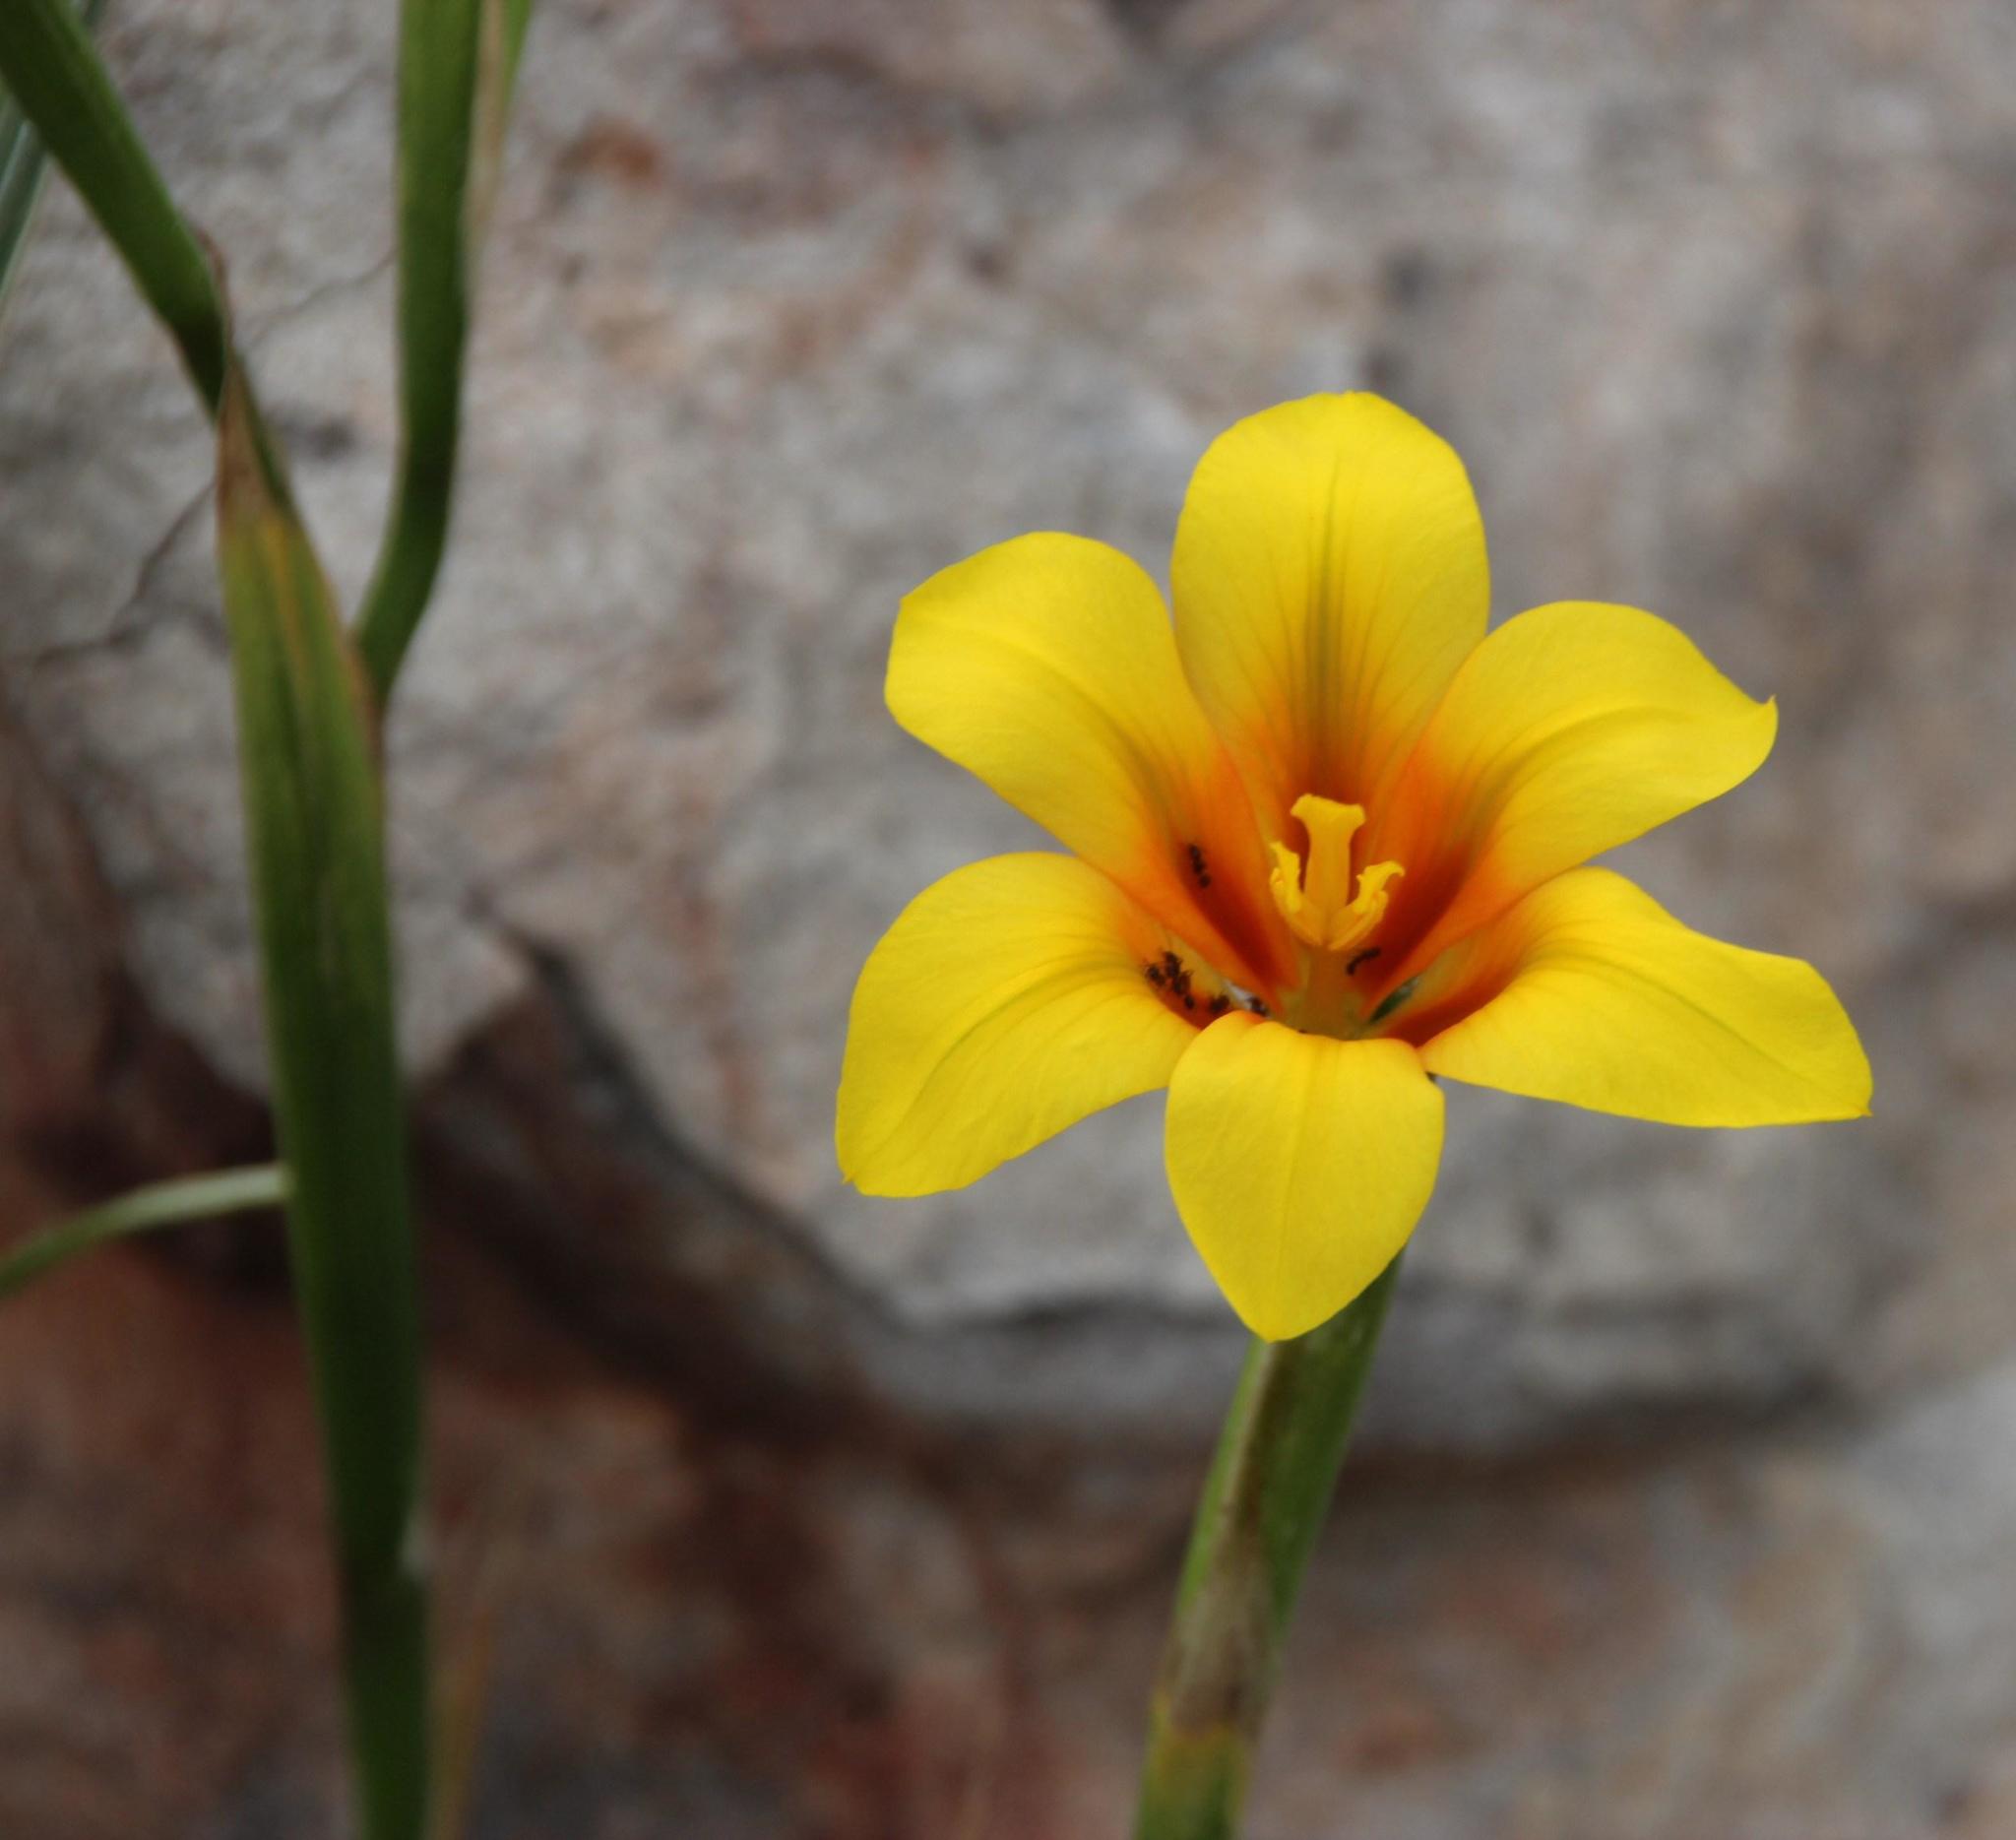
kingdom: Plantae
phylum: Tracheophyta
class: Liliopsida
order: Asparagales
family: Iridaceae
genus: Moraea
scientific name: Moraea ochroleuca
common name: Red tulp
